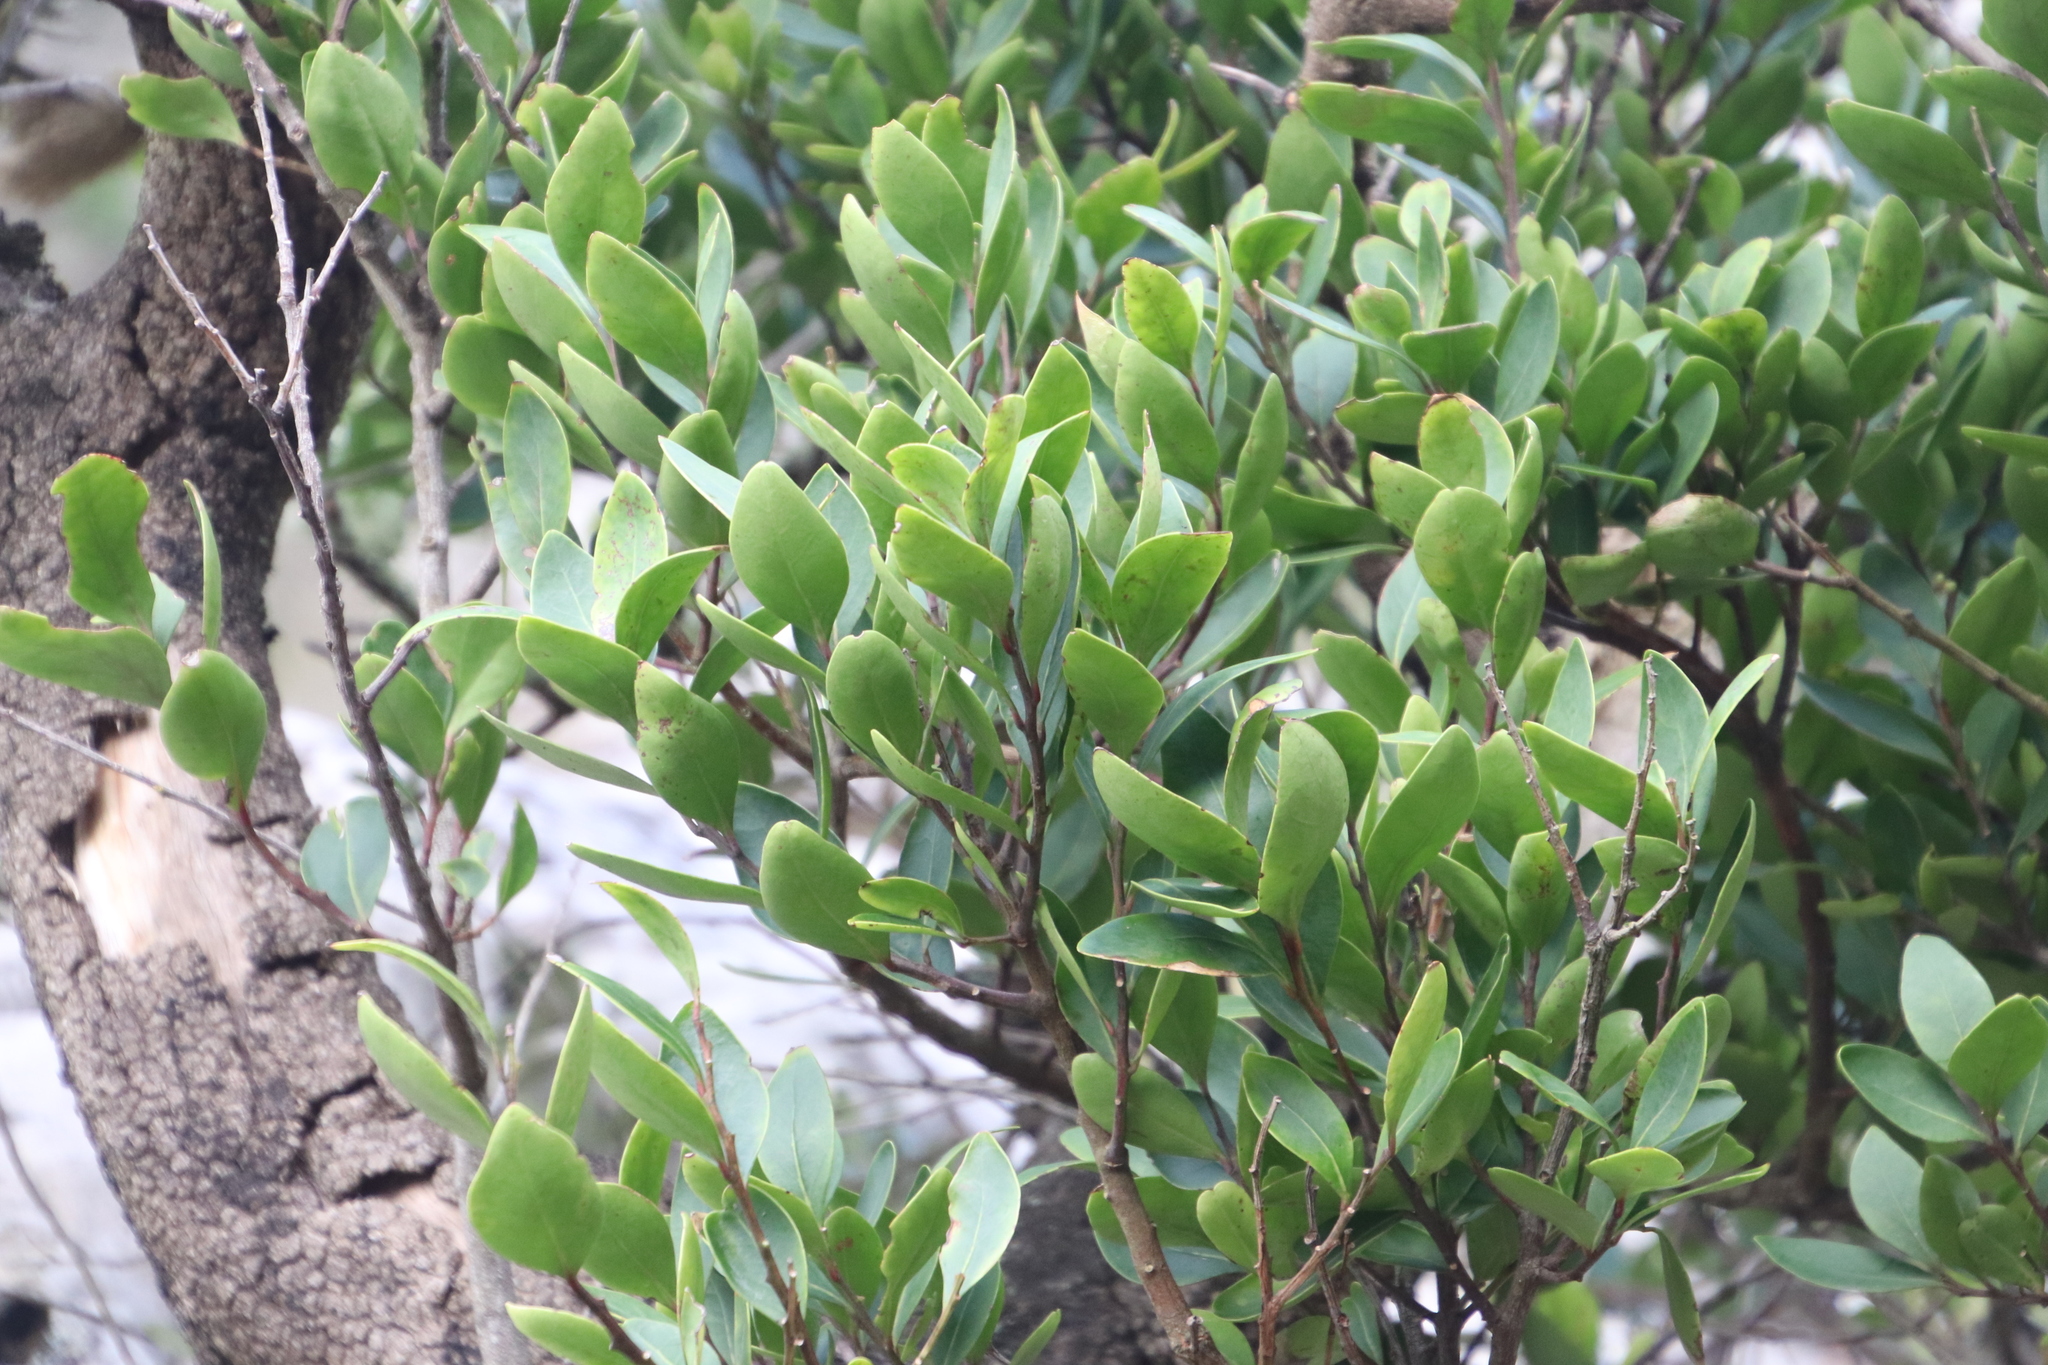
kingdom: Plantae
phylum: Tracheophyta
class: Magnoliopsida
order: Celastrales
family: Celastraceae
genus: Pterocelastrus
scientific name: Pterocelastrus tricuspidatus
